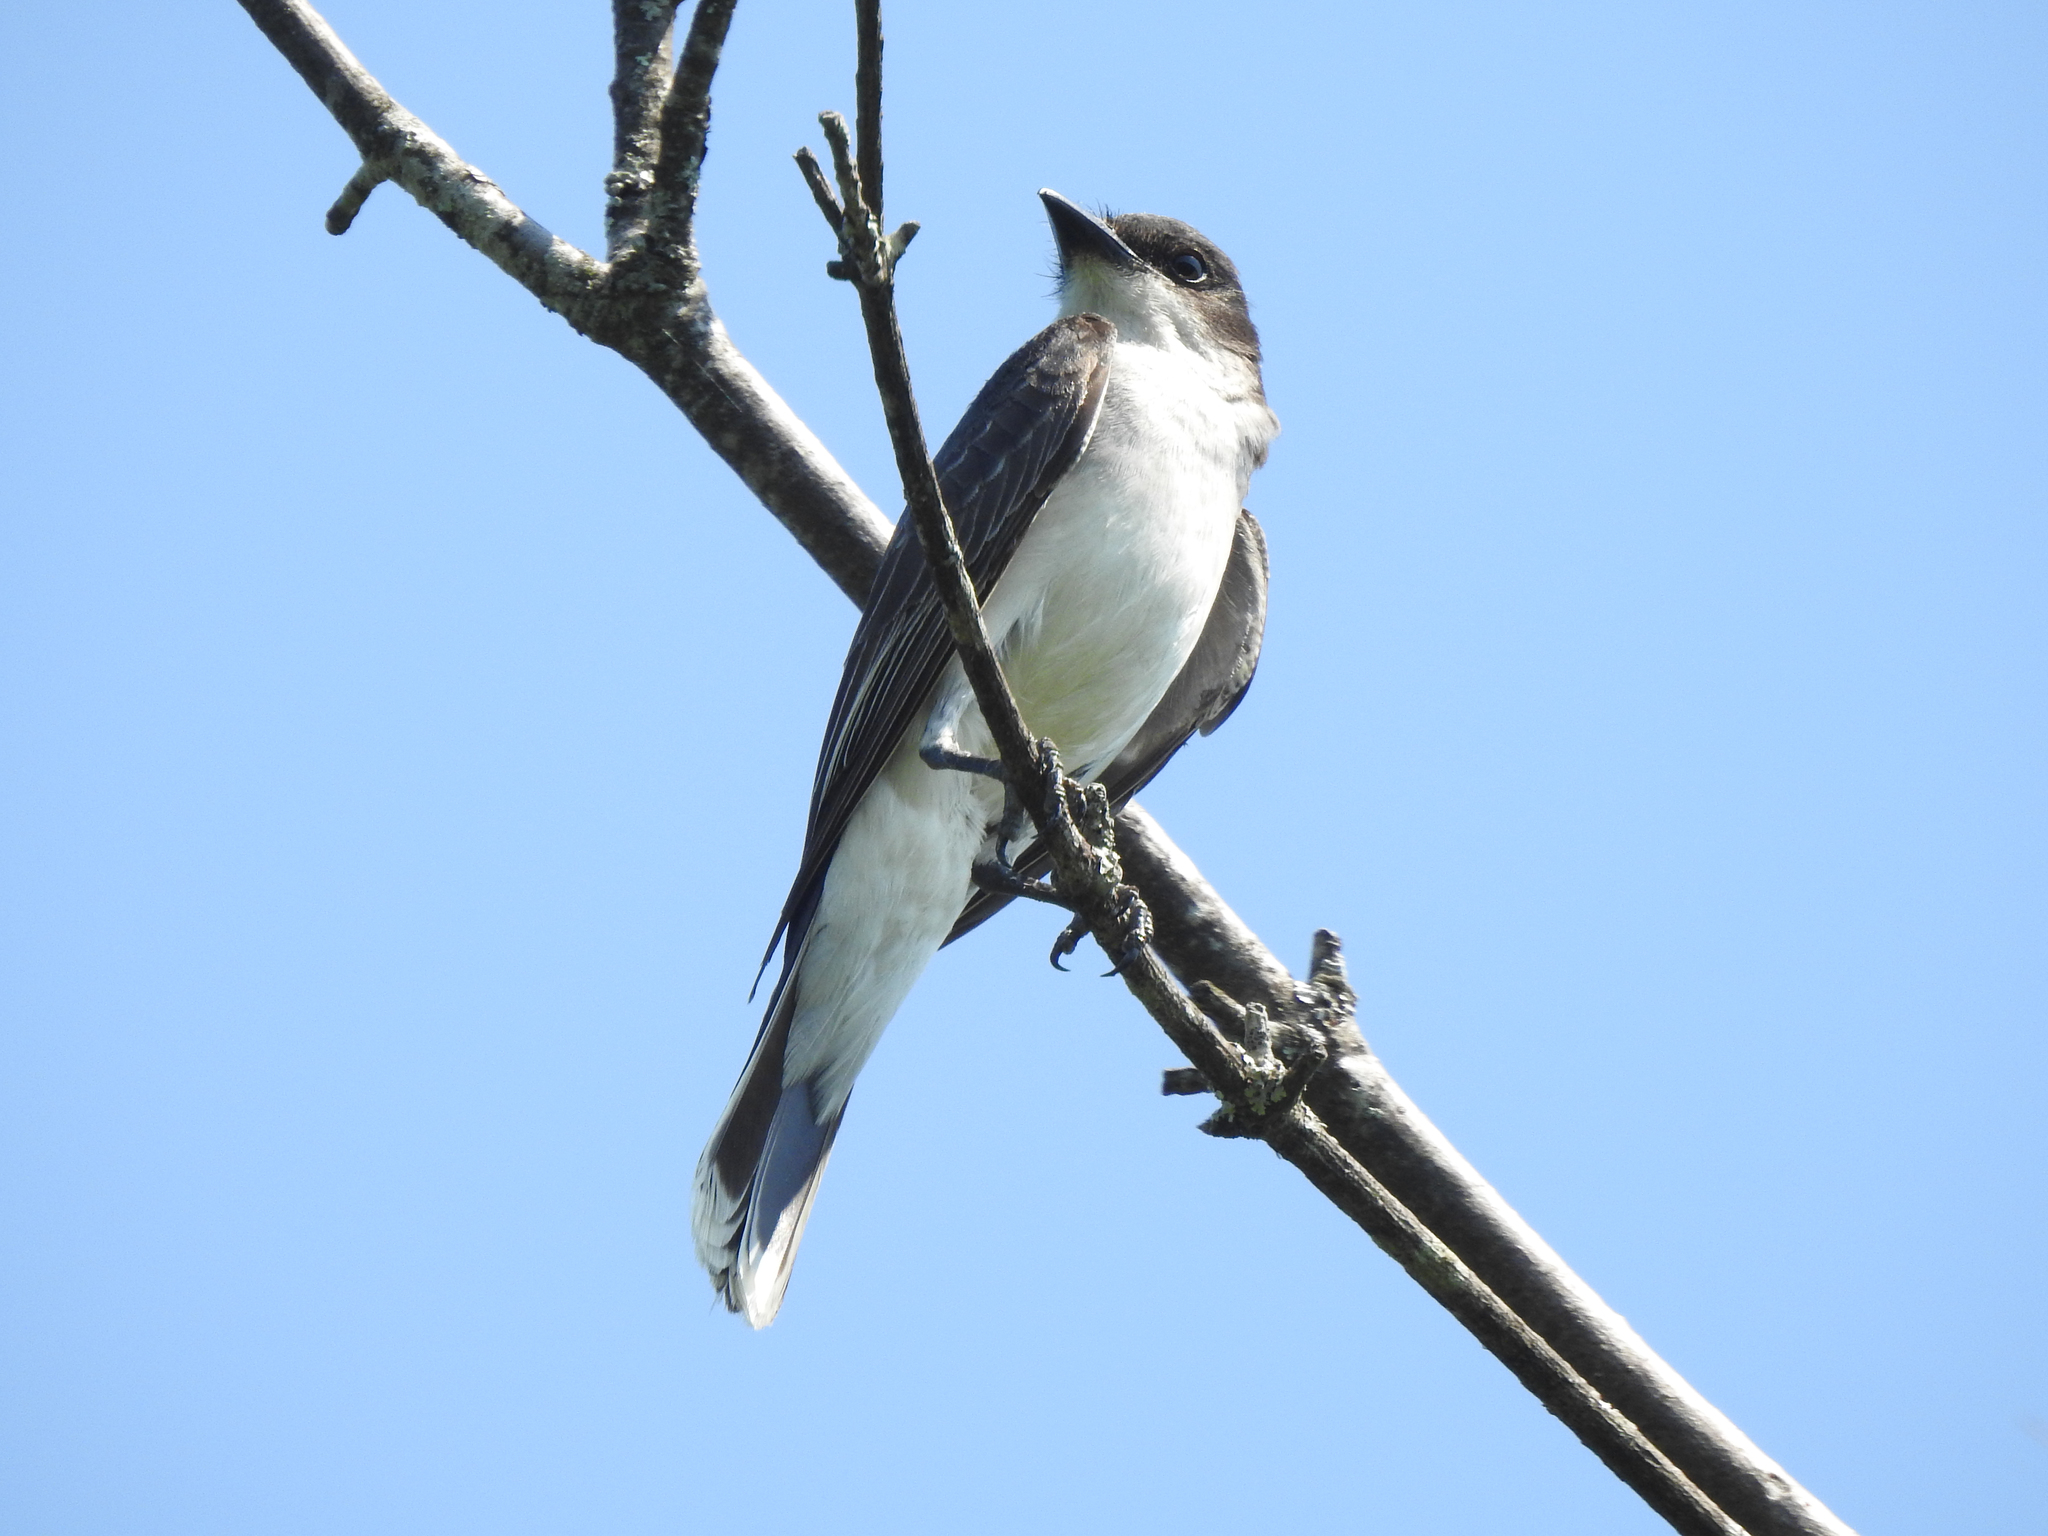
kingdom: Animalia
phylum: Chordata
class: Aves
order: Passeriformes
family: Tyrannidae
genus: Tyrannus
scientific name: Tyrannus tyrannus
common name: Eastern kingbird
